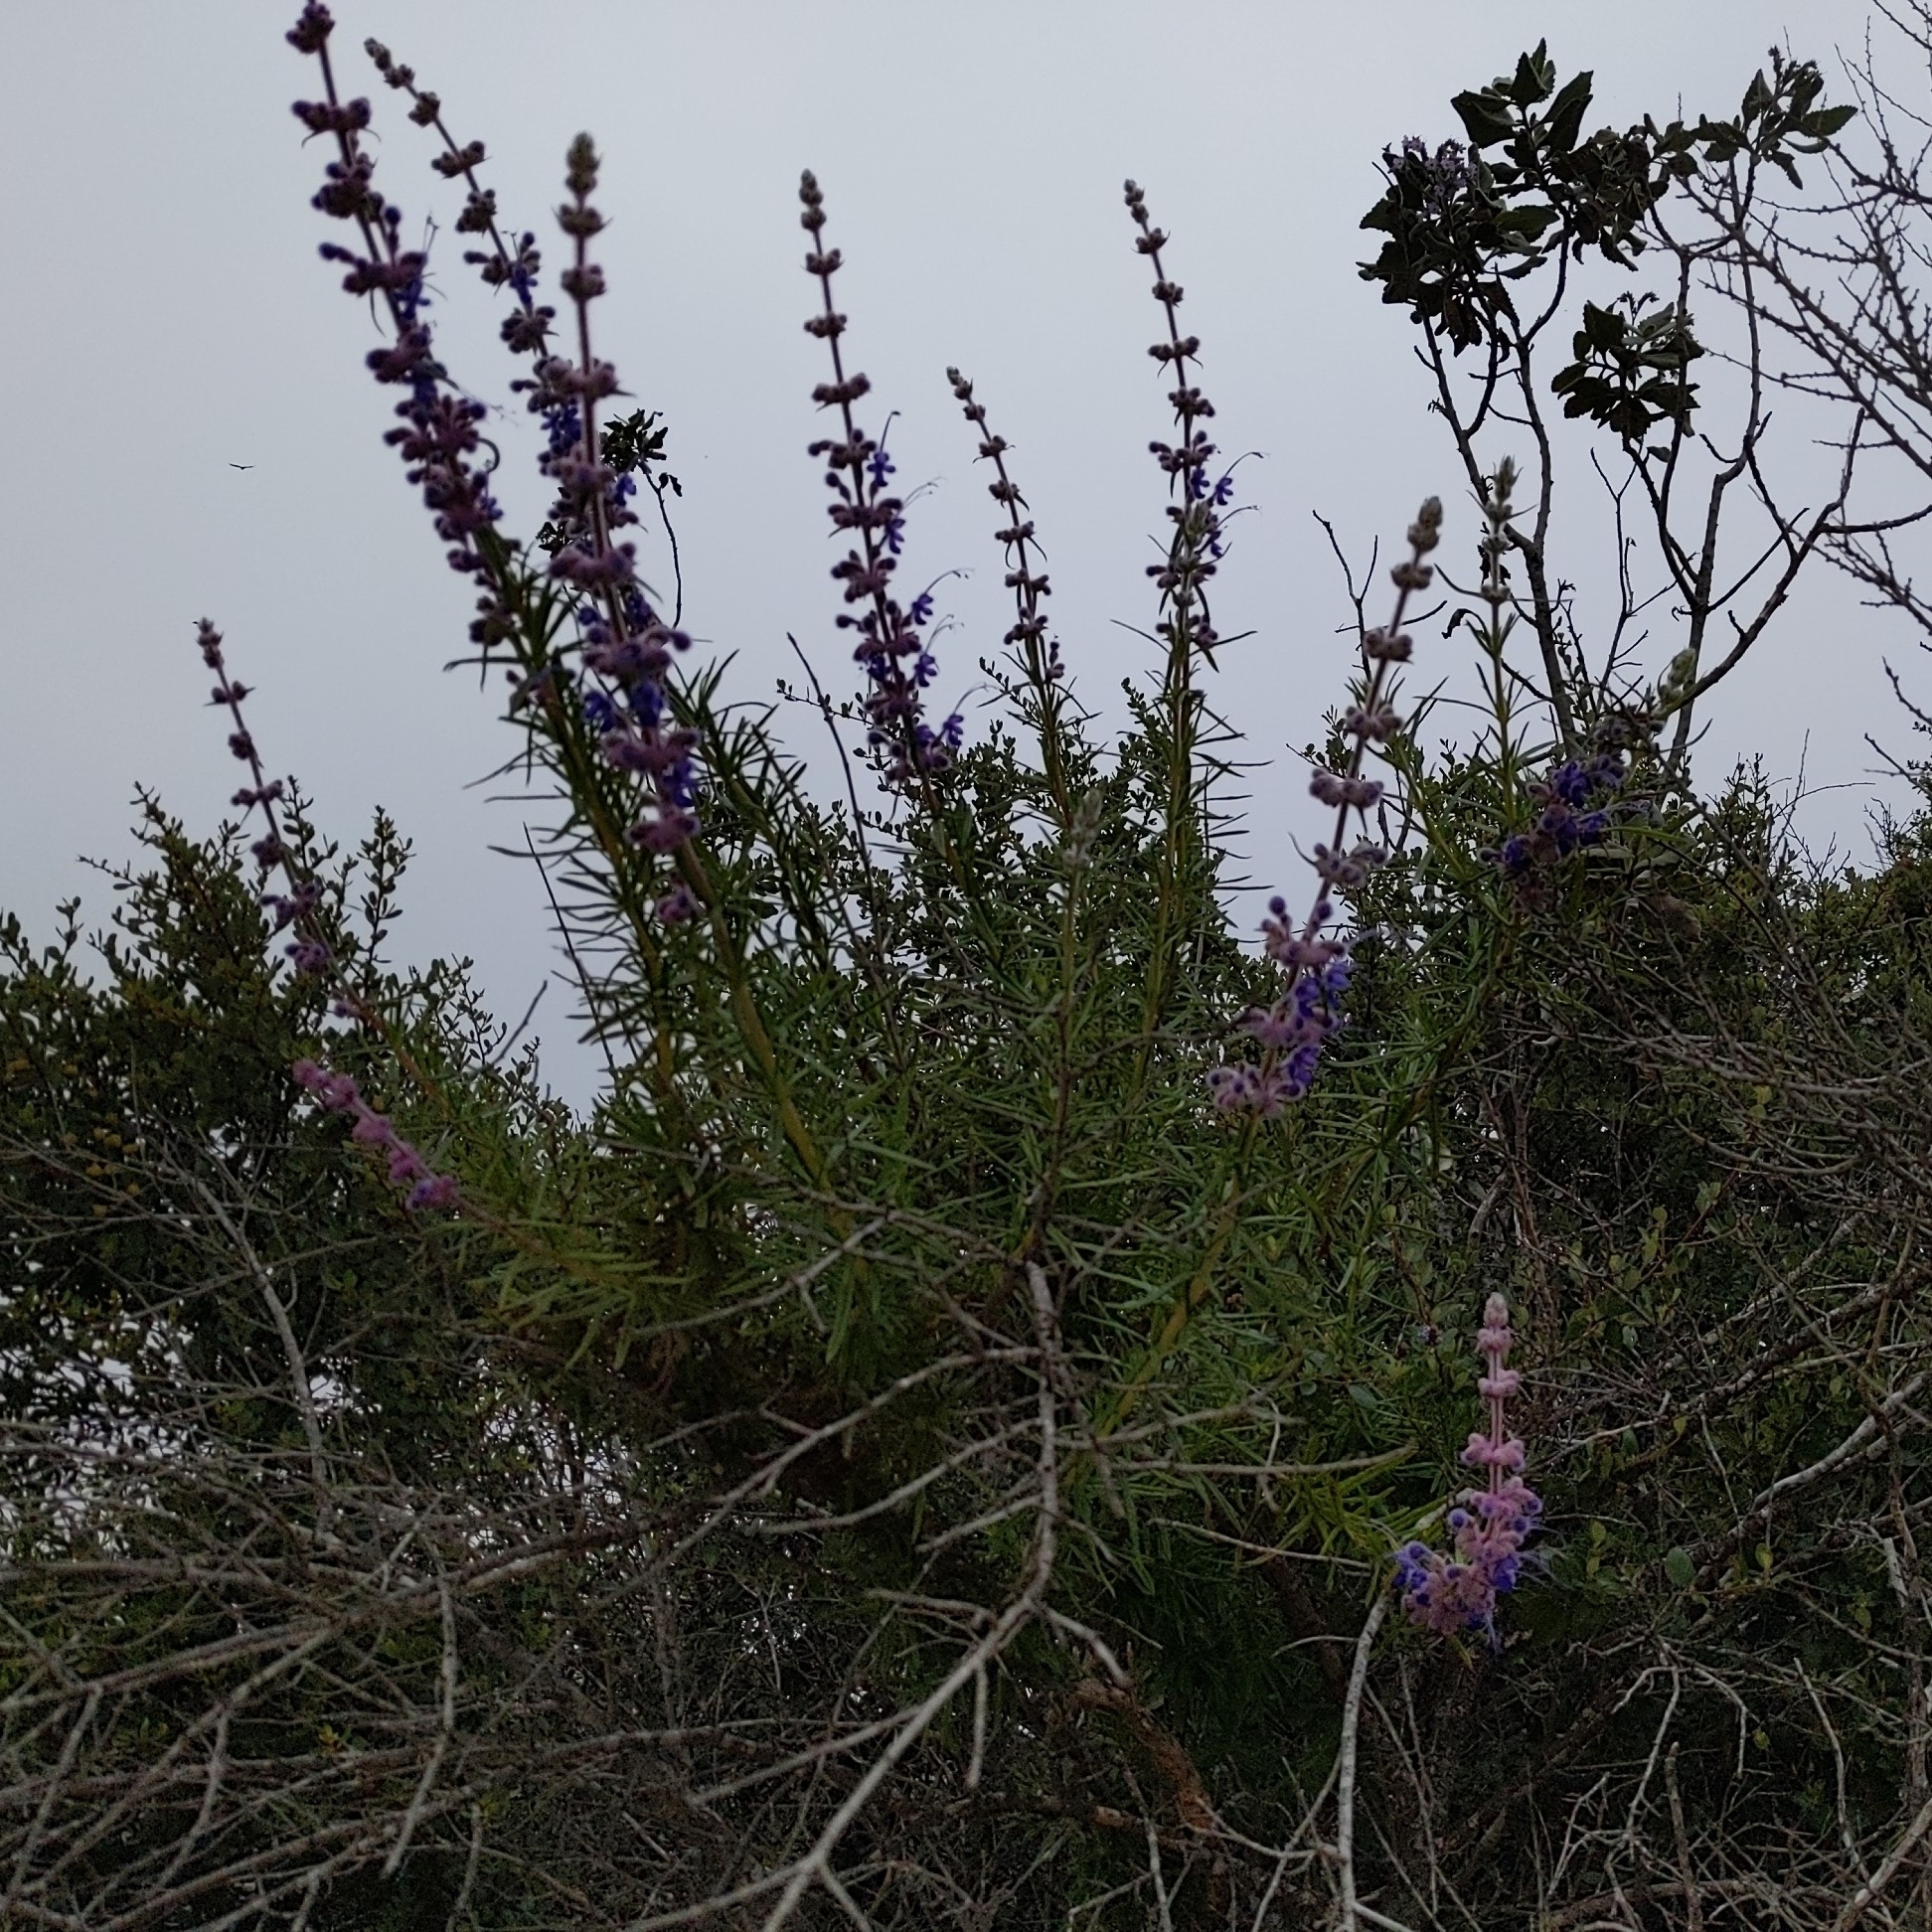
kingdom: Plantae
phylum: Tracheophyta
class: Magnoliopsida
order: Lamiales
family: Lamiaceae
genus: Trichostema
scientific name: Trichostema lanatum
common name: Woolly bluecurls
